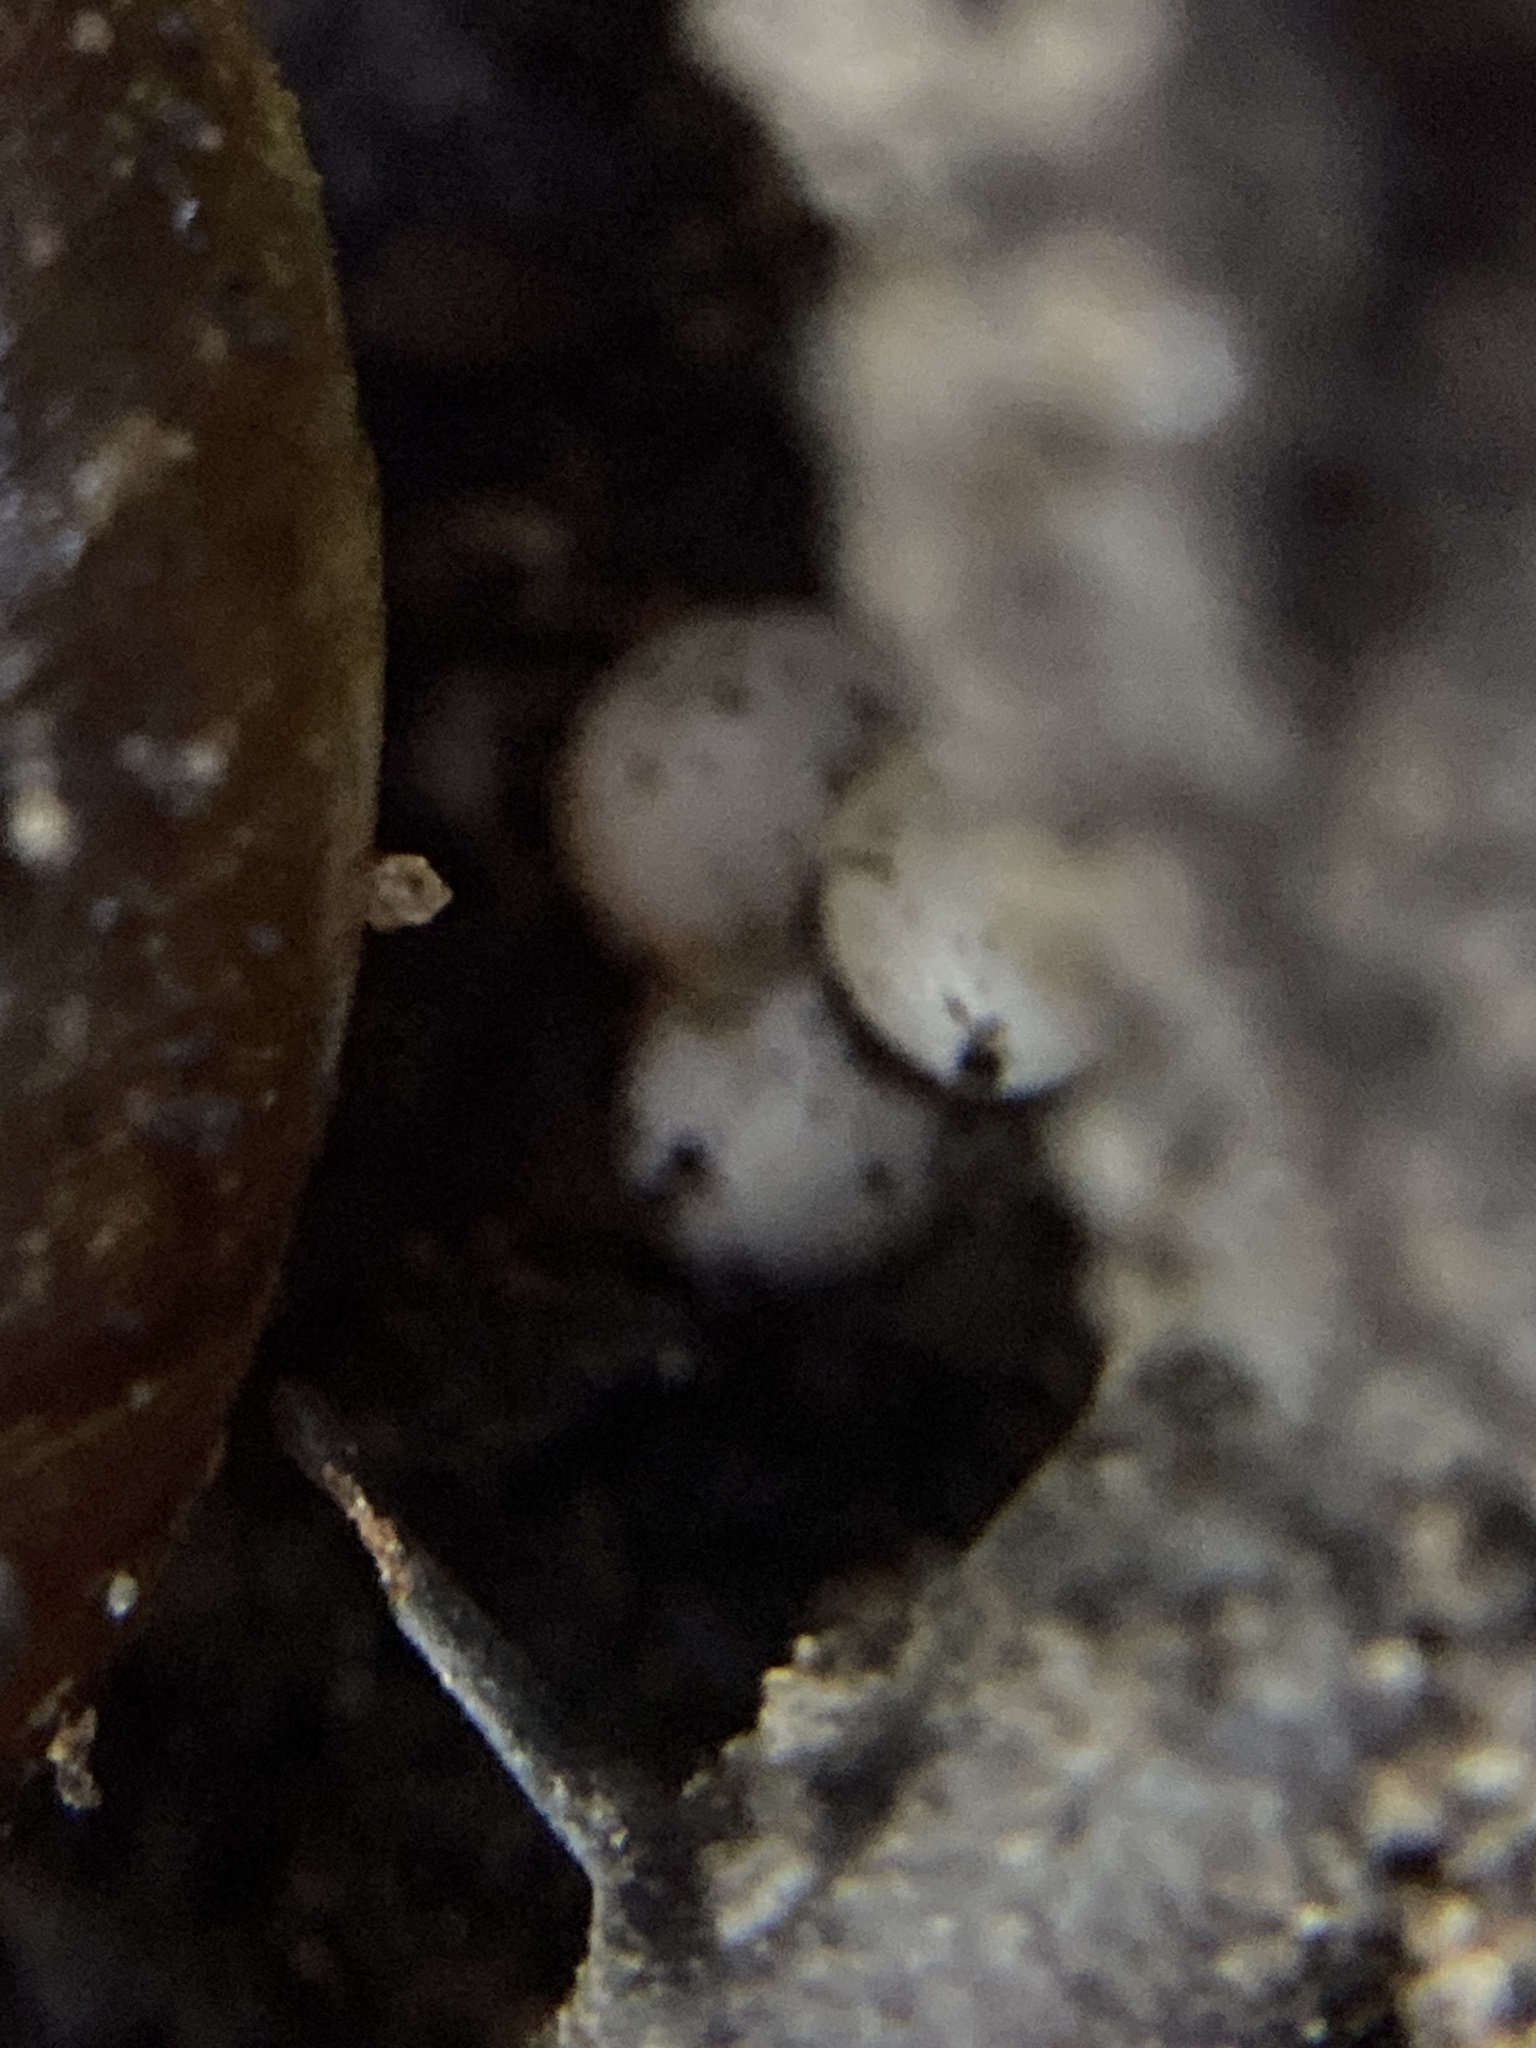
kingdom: Animalia
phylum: Mollusca
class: Gastropoda
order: Stylommatophora
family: Rhytididae
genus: Austrorhytida
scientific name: Austrorhytida capillacea
